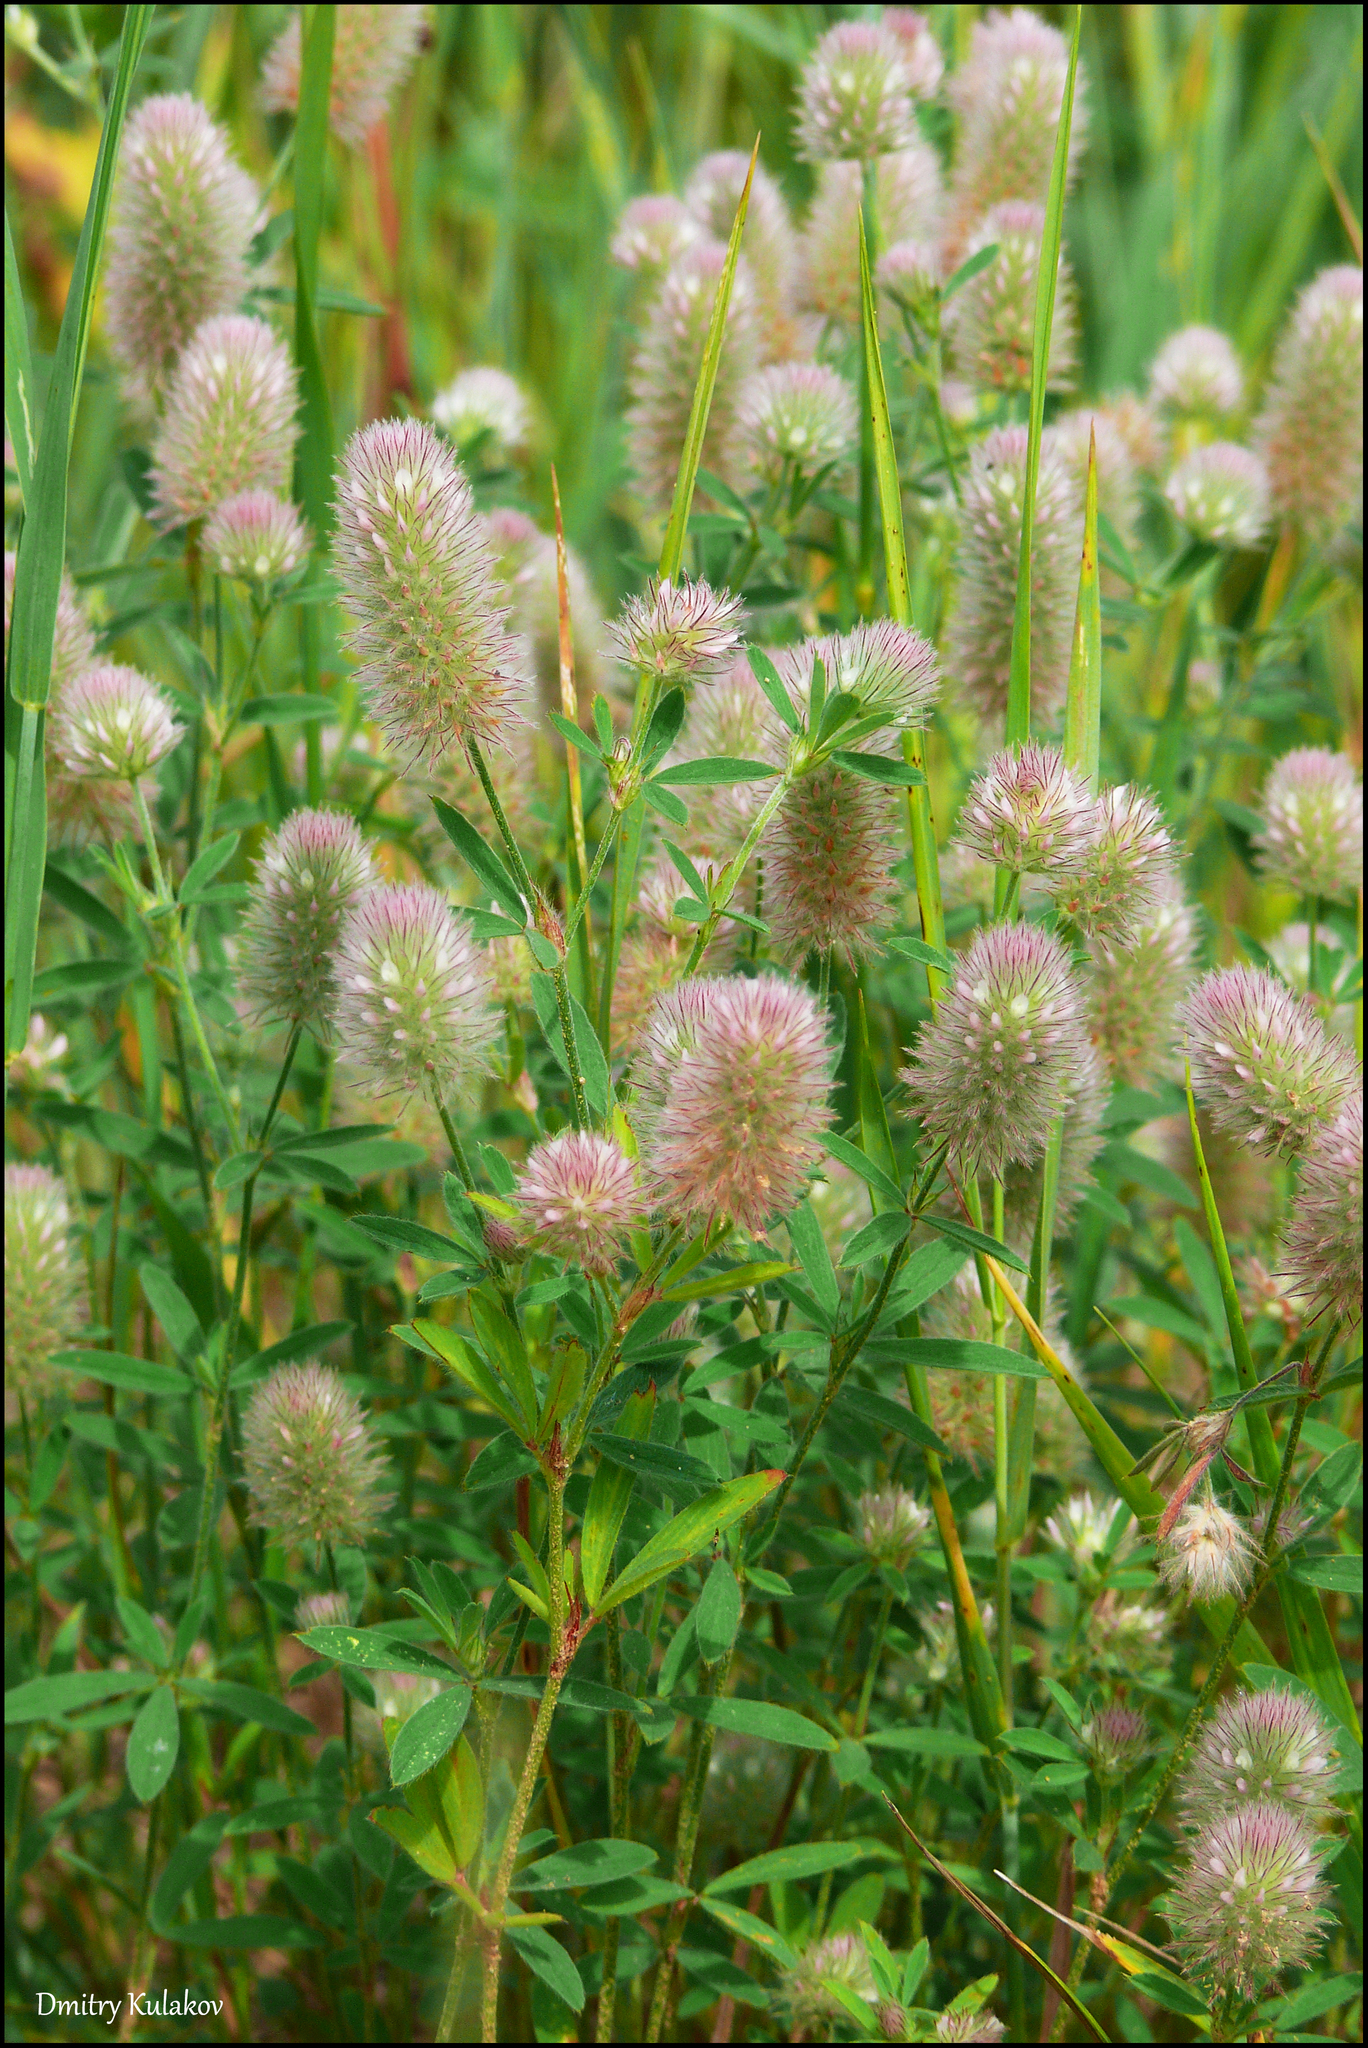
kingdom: Plantae
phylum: Tracheophyta
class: Magnoliopsida
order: Fabales
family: Fabaceae
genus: Trifolium
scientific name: Trifolium arvense
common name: Hare's-foot clover
